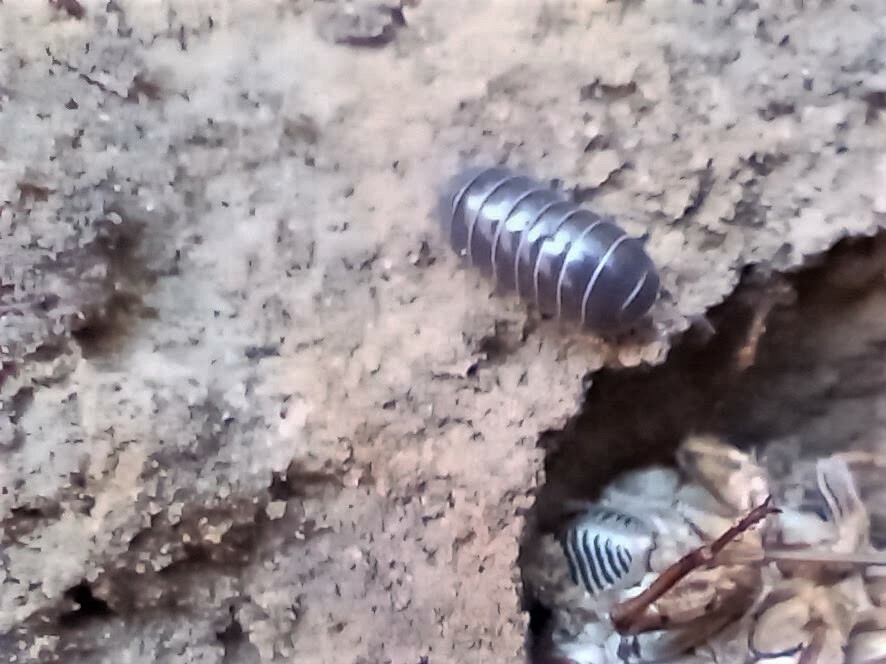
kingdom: Animalia
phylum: Arthropoda
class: Malacostraca
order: Isopoda
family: Armadillidiidae
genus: Armadillidium
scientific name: Armadillidium vulgare
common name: Common pill woodlouse
